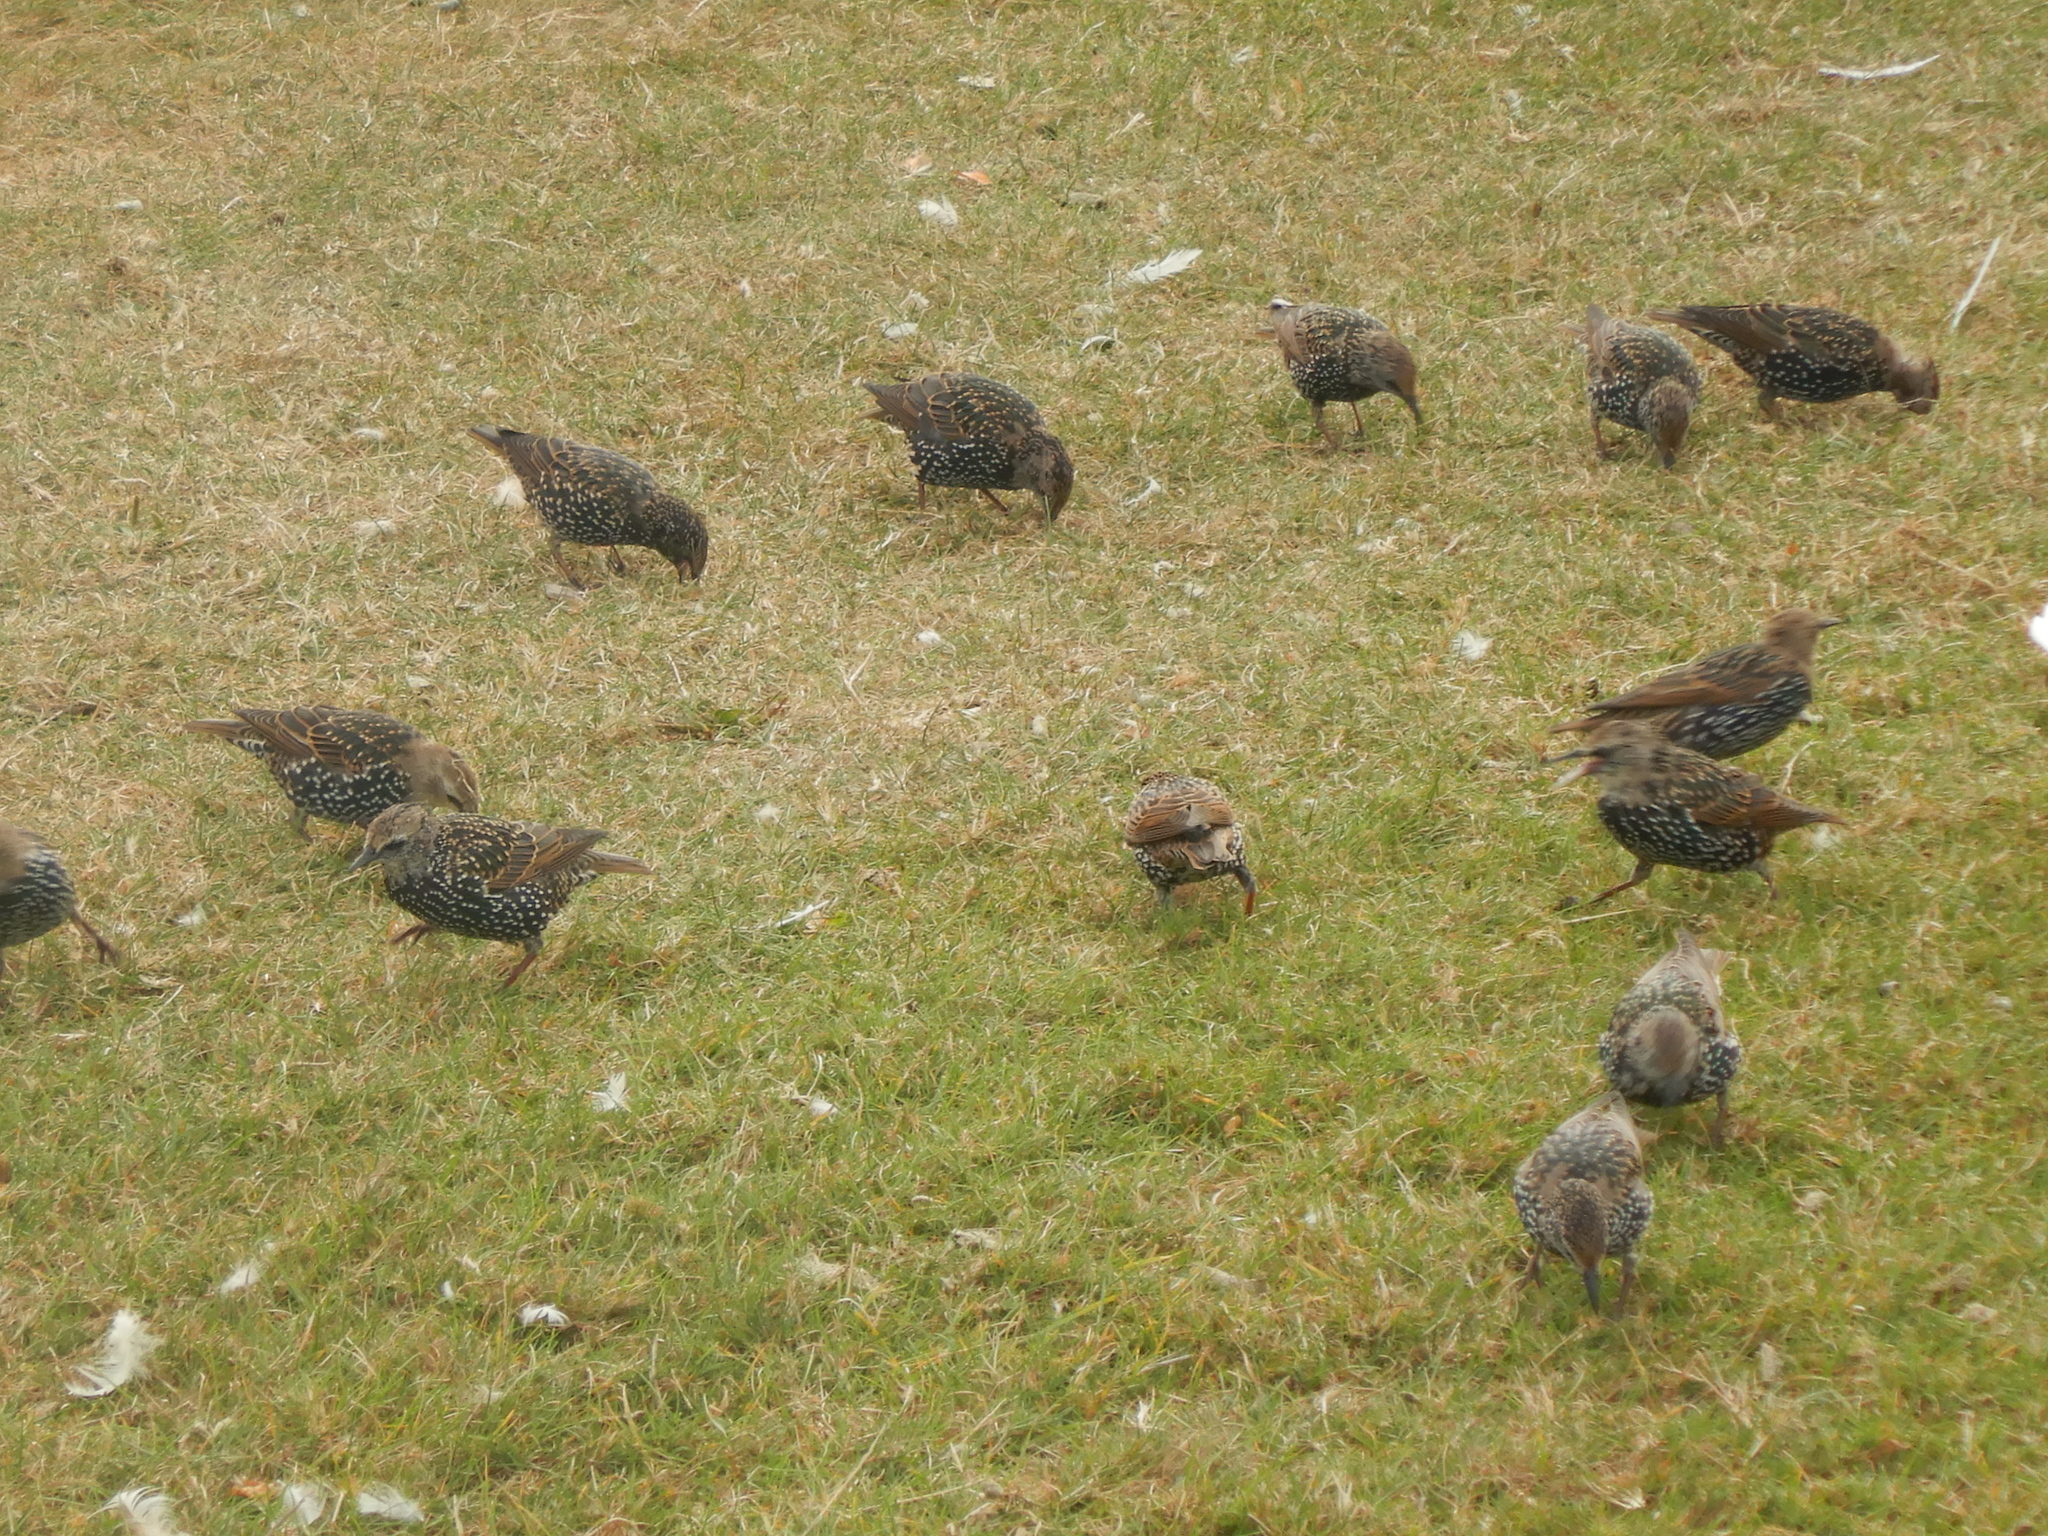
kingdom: Animalia
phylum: Chordata
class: Aves
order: Passeriformes
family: Sturnidae
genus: Sturnus
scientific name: Sturnus vulgaris
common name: Common starling
